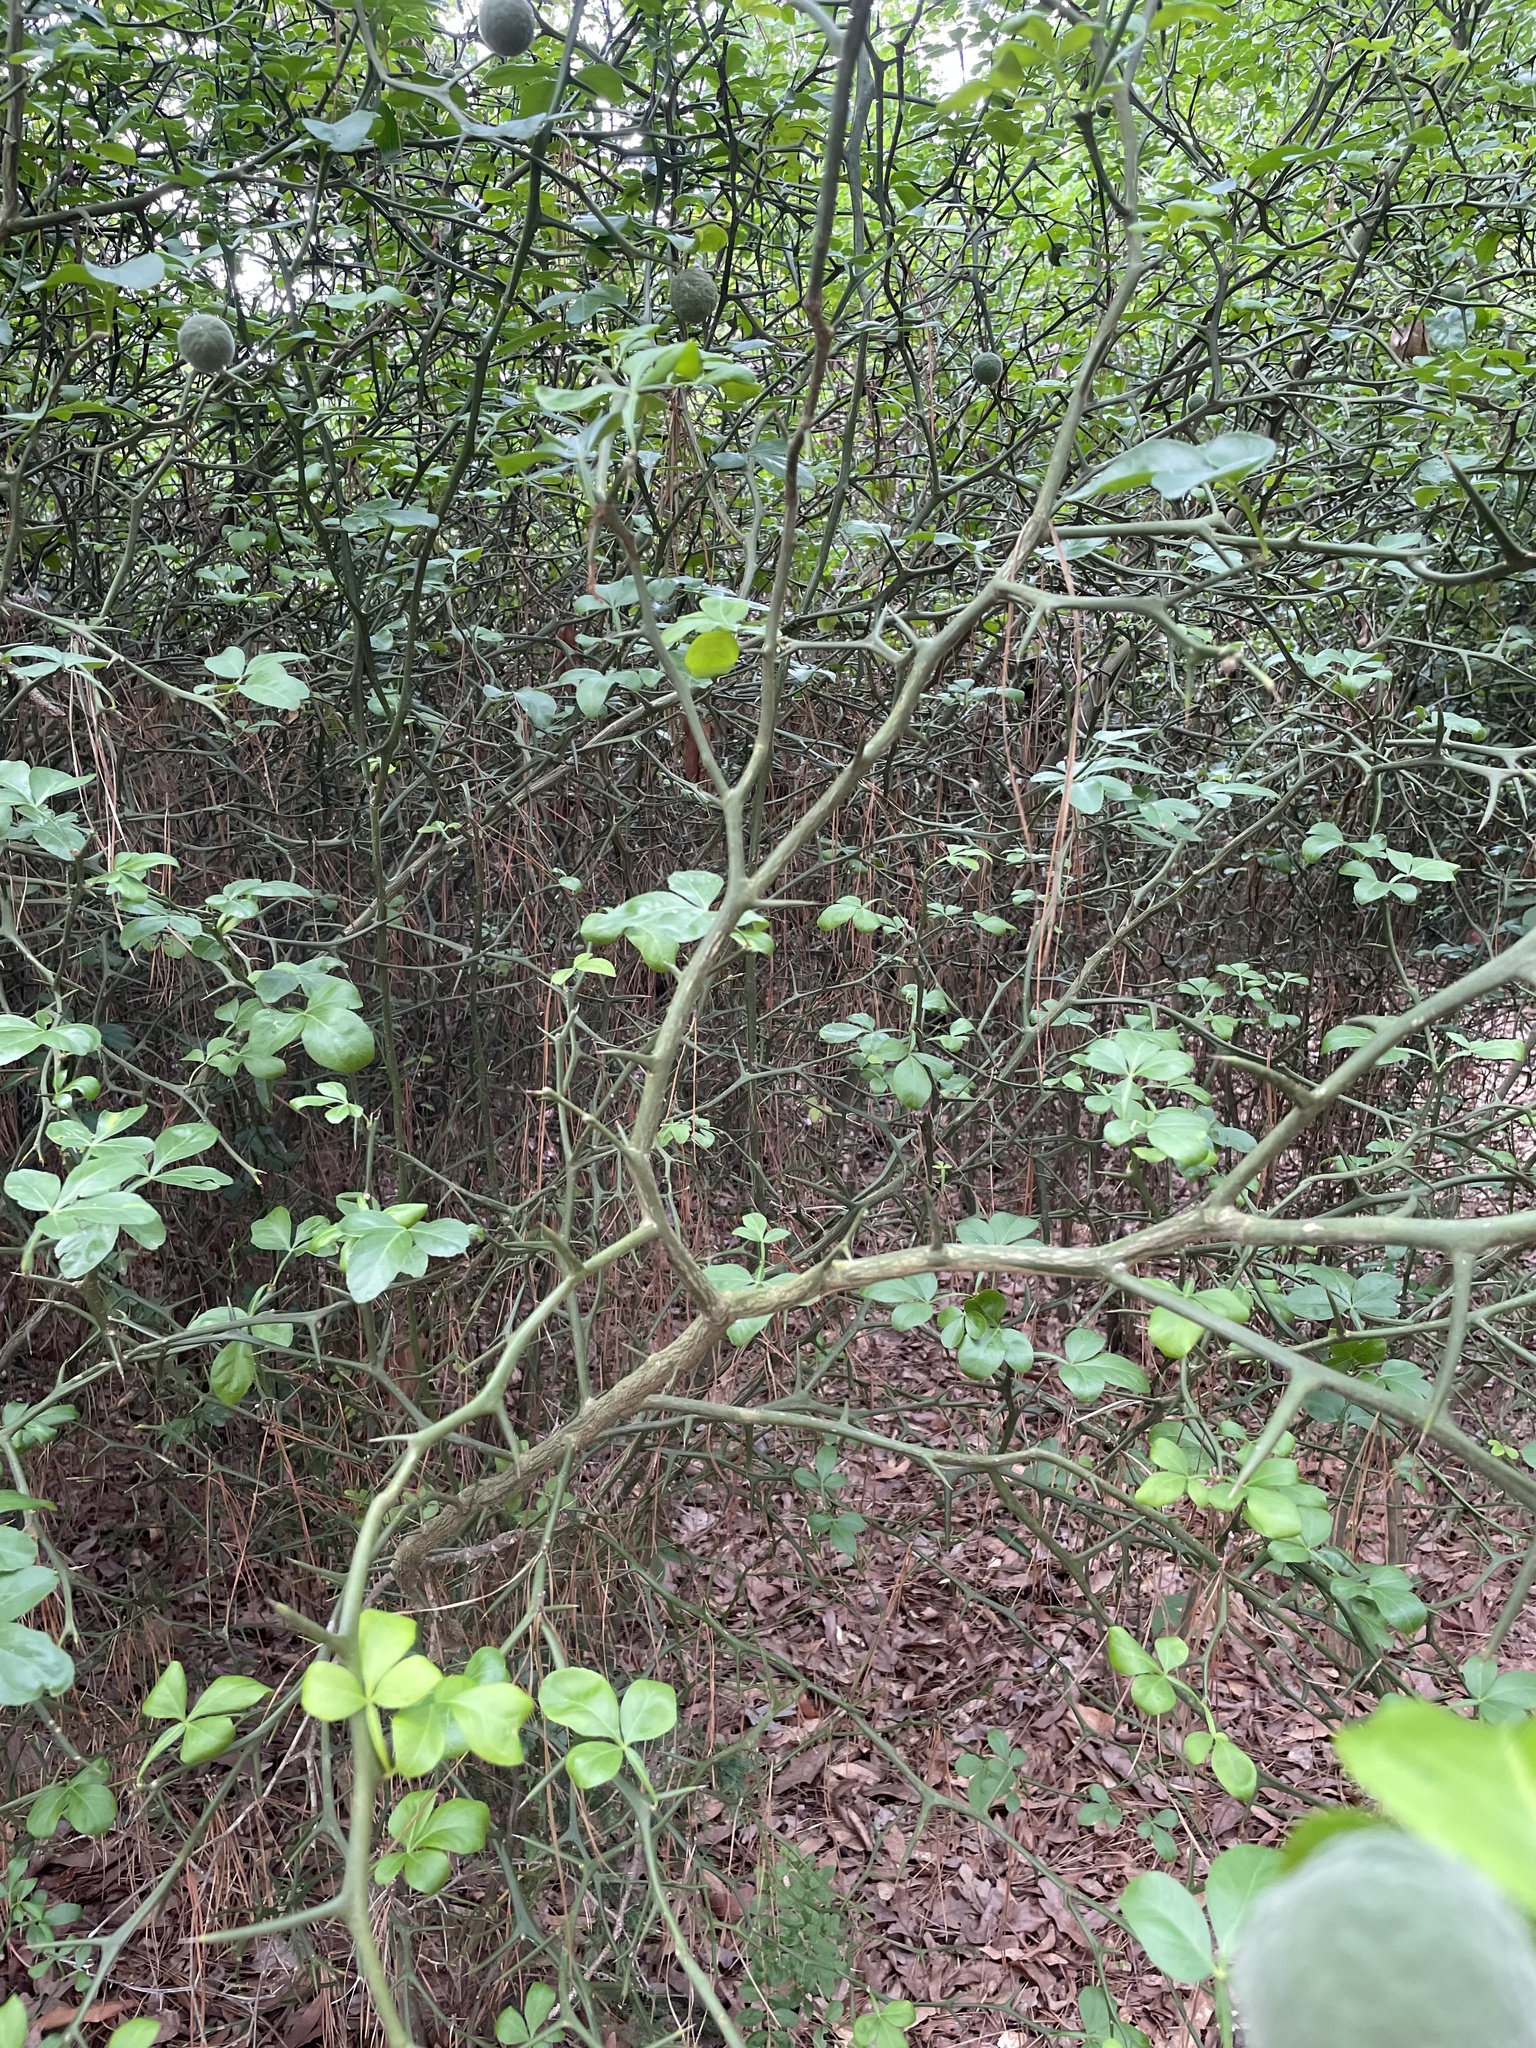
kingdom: Plantae
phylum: Tracheophyta
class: Magnoliopsida
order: Sapindales
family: Rutaceae
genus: Citrus
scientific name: Citrus trifoliata
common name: Japanese bitter-orange
